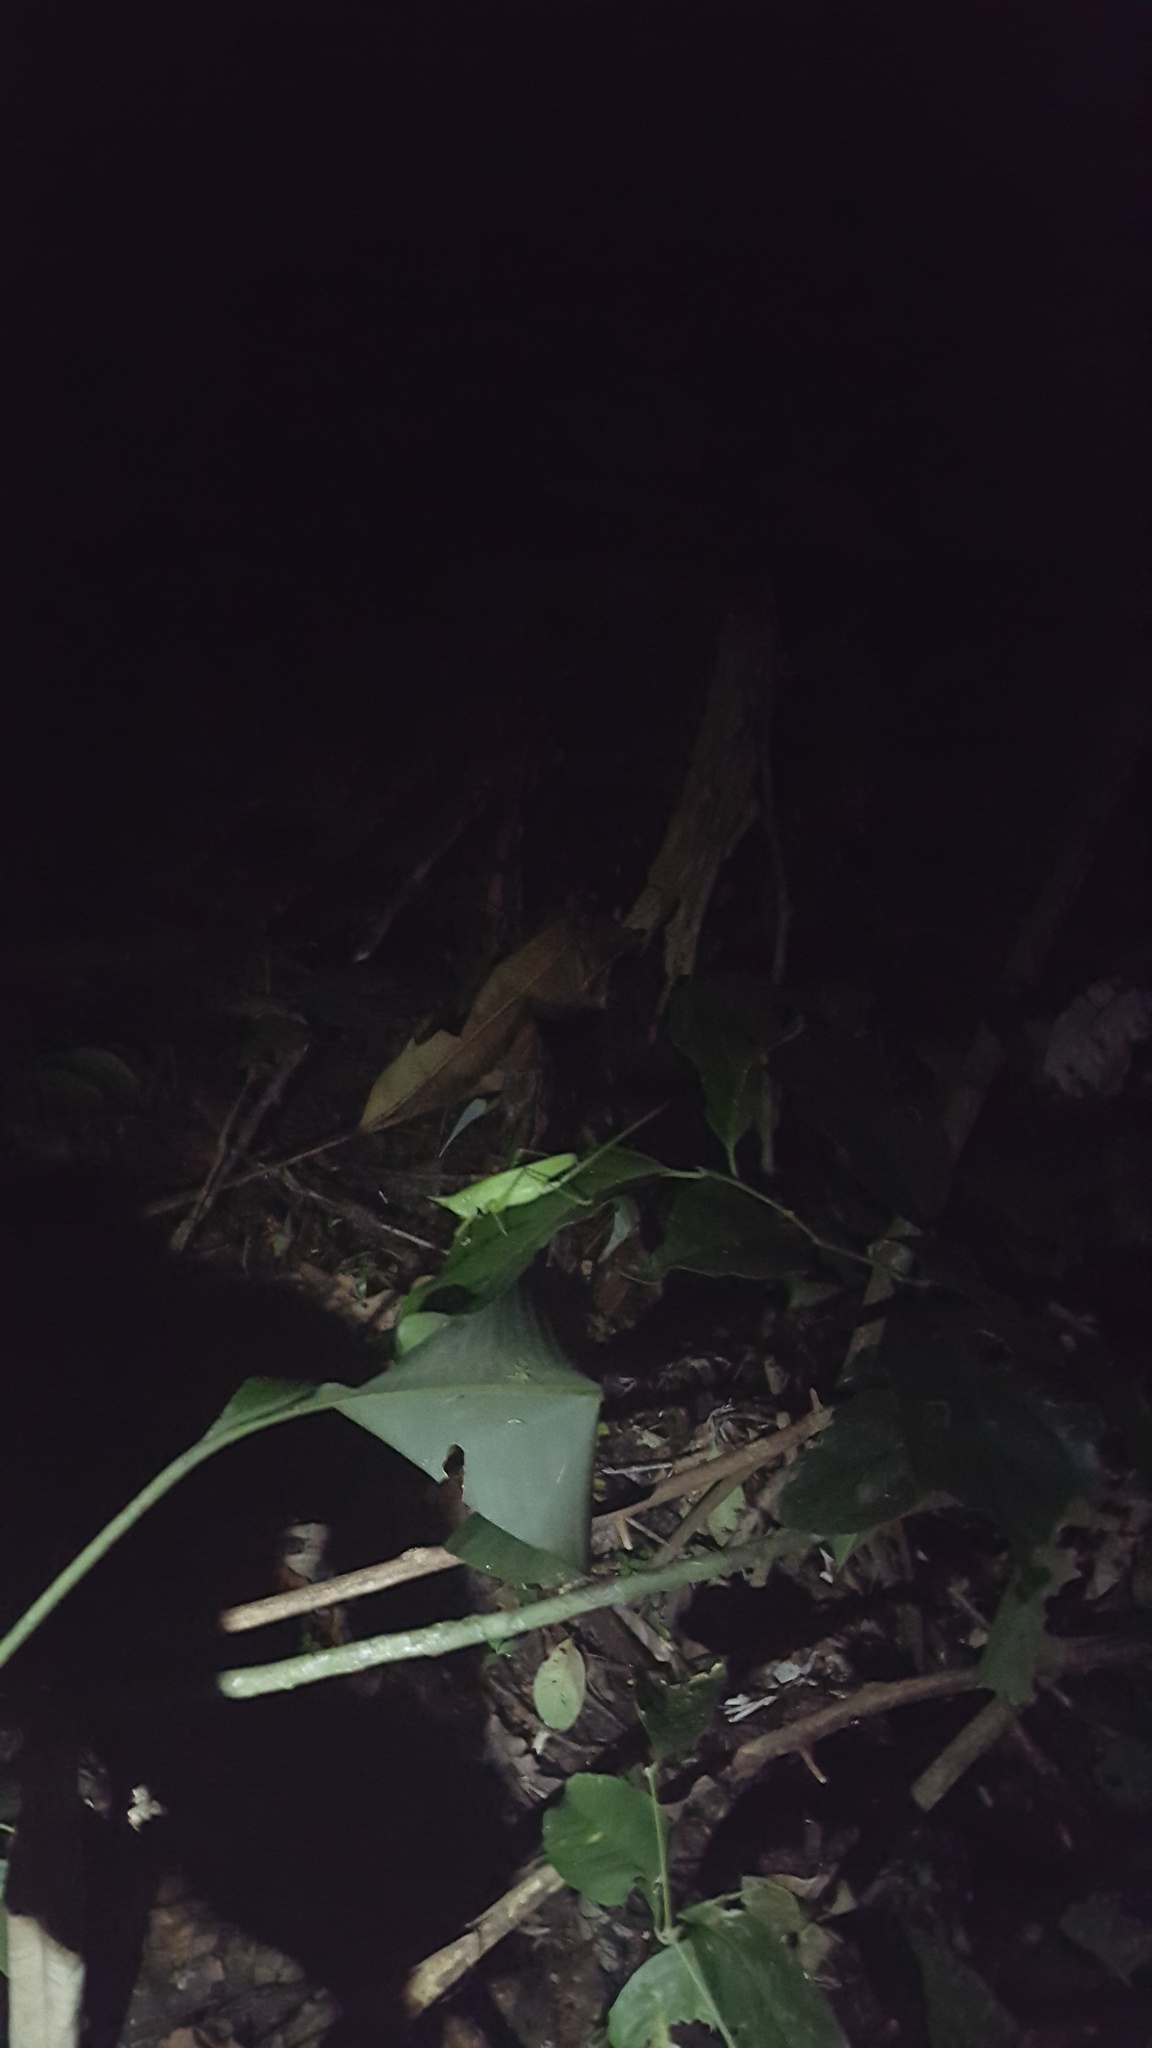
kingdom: Animalia
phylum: Arthropoda
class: Insecta
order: Orthoptera
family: Tettigoniidae
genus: Copiphora
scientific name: Copiphora longicauda
